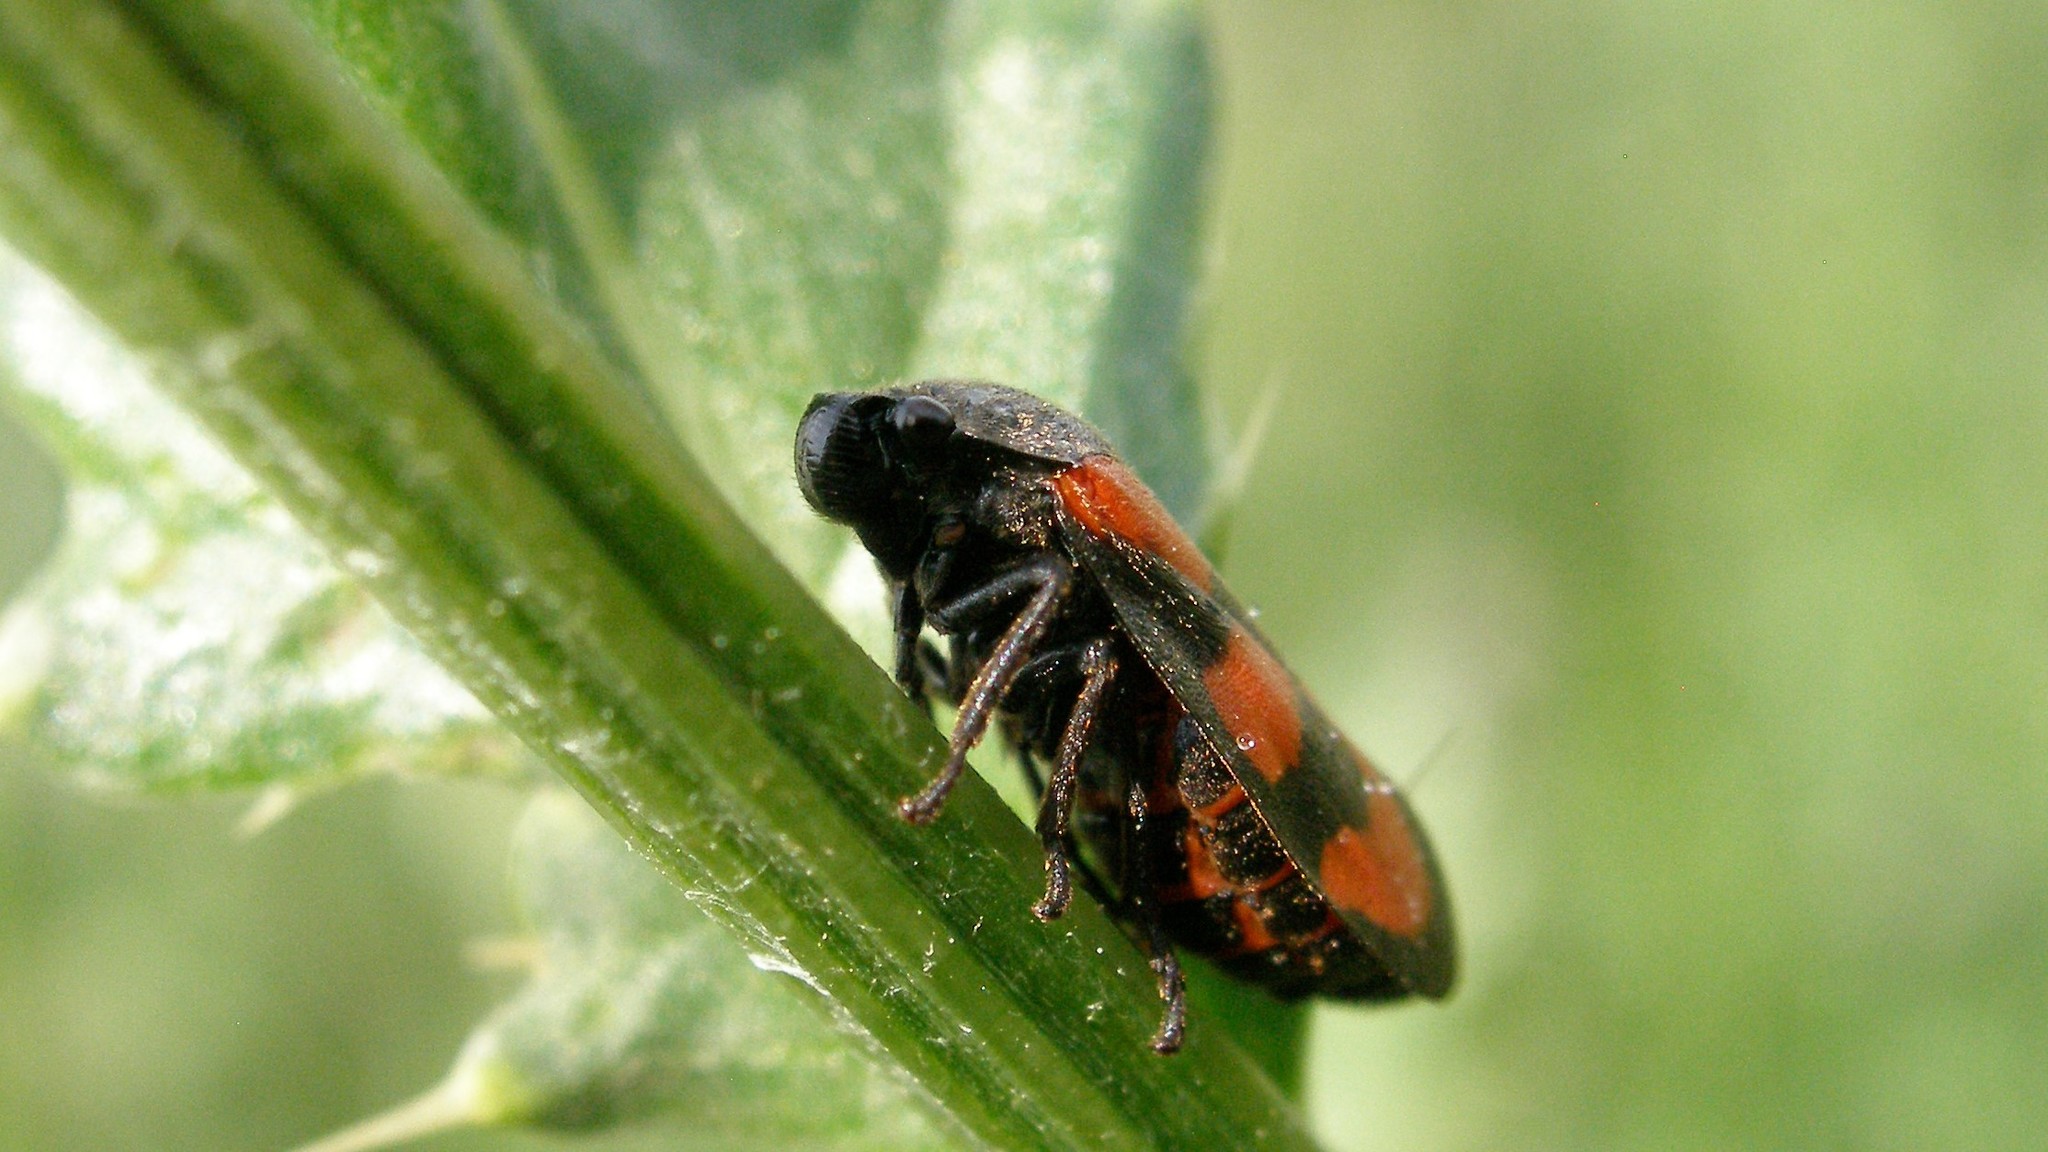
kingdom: Animalia
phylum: Arthropoda
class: Insecta
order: Hemiptera
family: Cercopidae
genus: Cercopis
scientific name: Cercopis vulnerata
